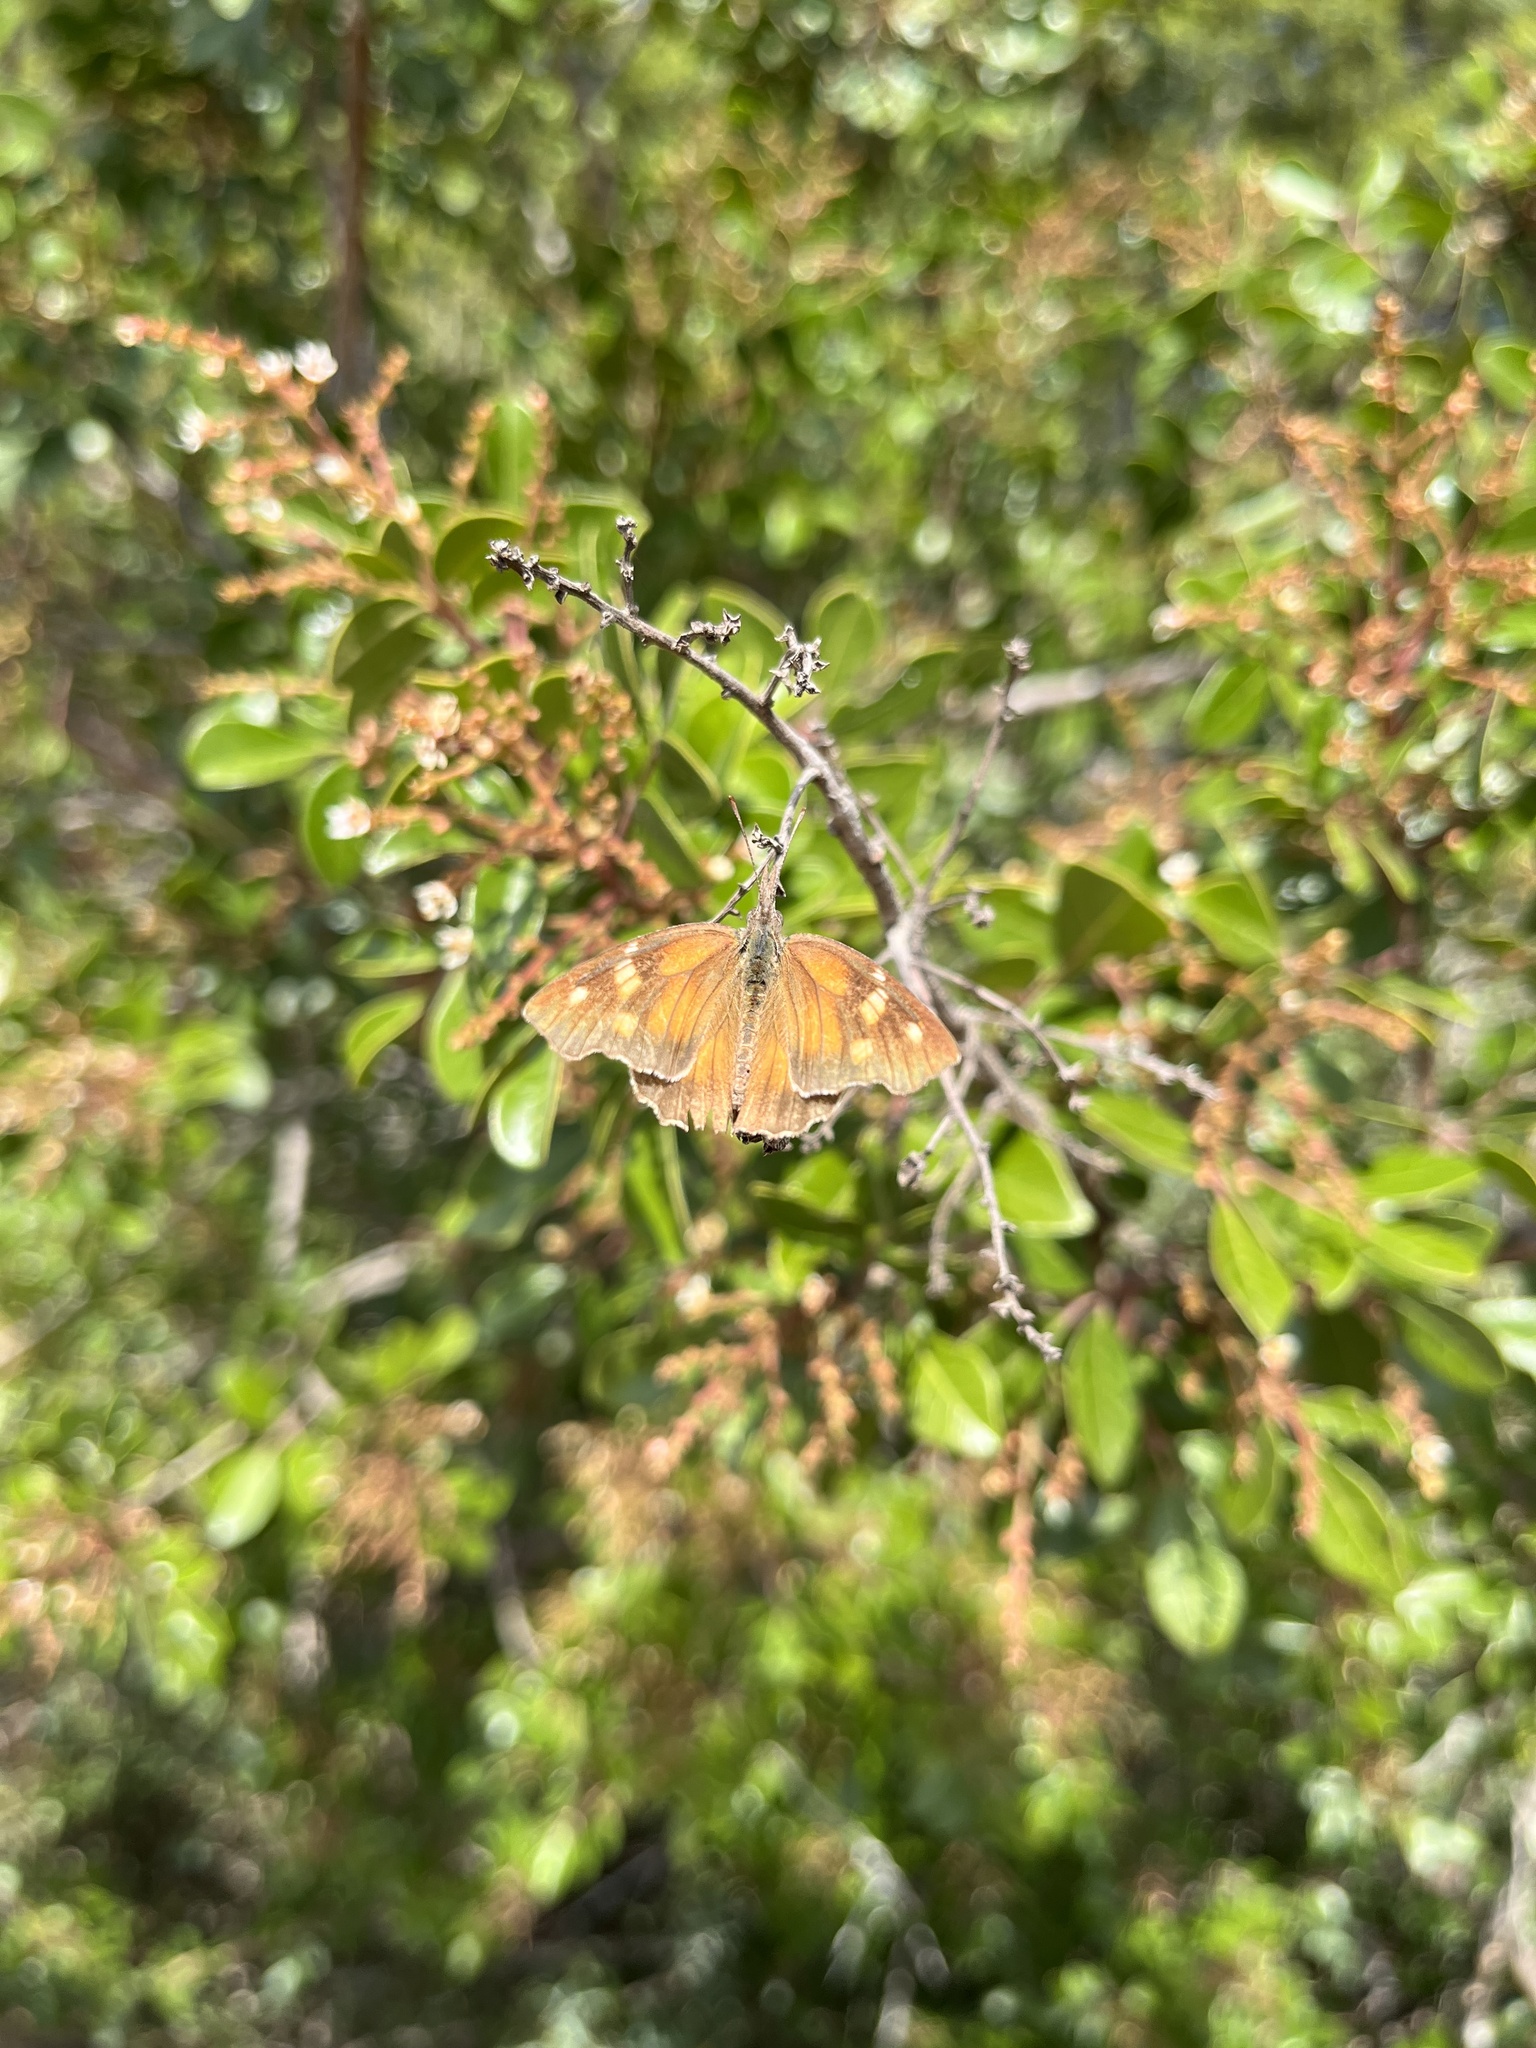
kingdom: Animalia
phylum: Arthropoda
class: Insecta
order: Lepidoptera
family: Nymphalidae
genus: Libytheana
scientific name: Libytheana carinenta
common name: American snout
